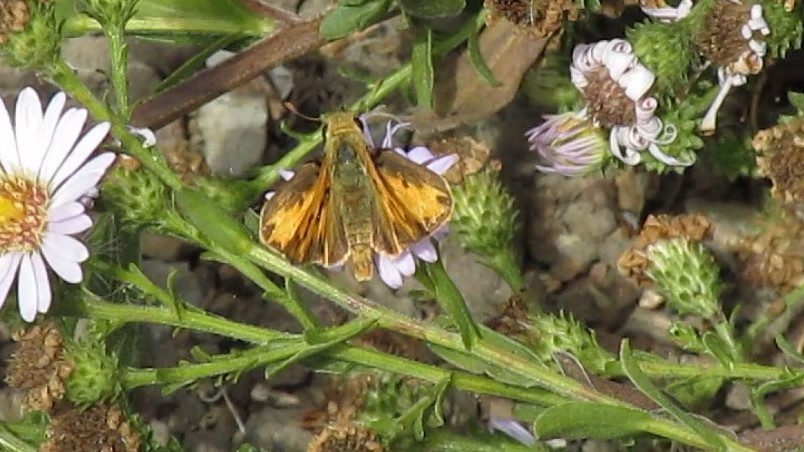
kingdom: Animalia
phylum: Arthropoda
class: Insecta
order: Lepidoptera
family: Hesperiidae
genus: Hylephila
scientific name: Hylephila phyleus
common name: Fiery skipper
